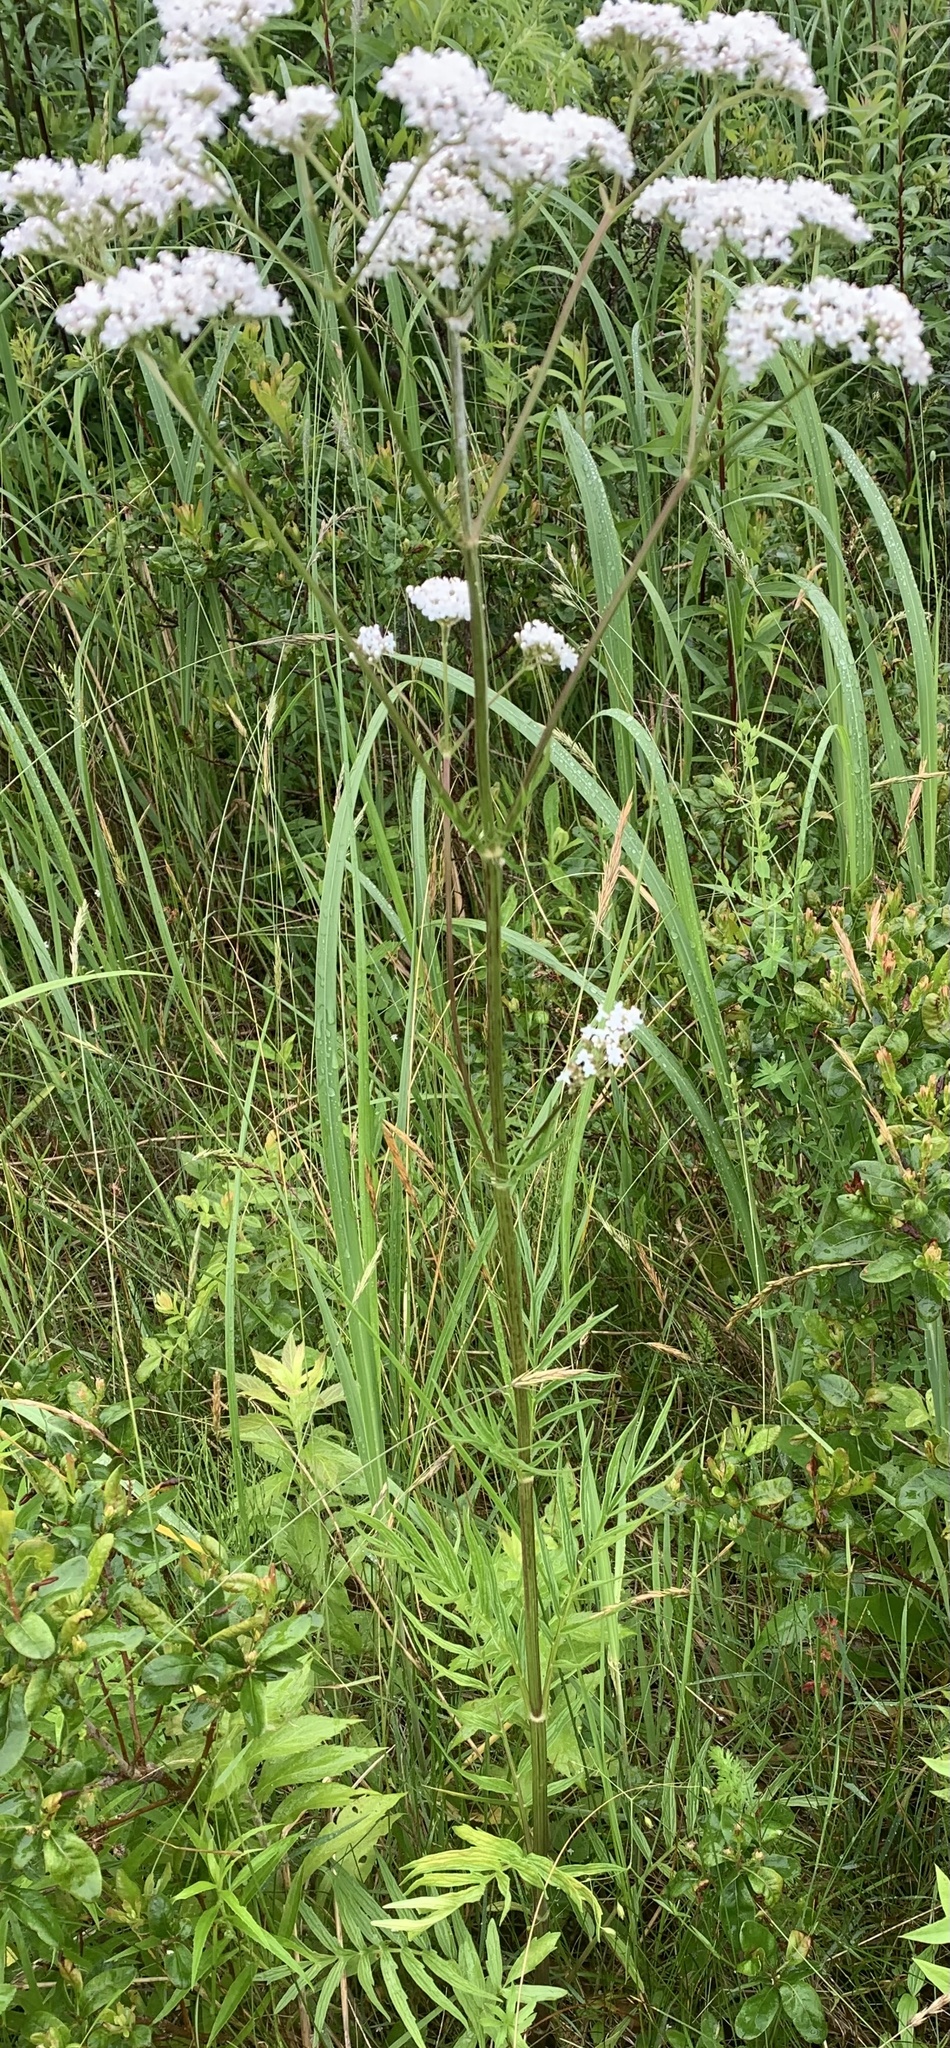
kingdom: Plantae
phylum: Tracheophyta
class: Magnoliopsida
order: Dipsacales
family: Caprifoliaceae
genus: Valeriana
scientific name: Valeriana officinalis
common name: Common valerian
